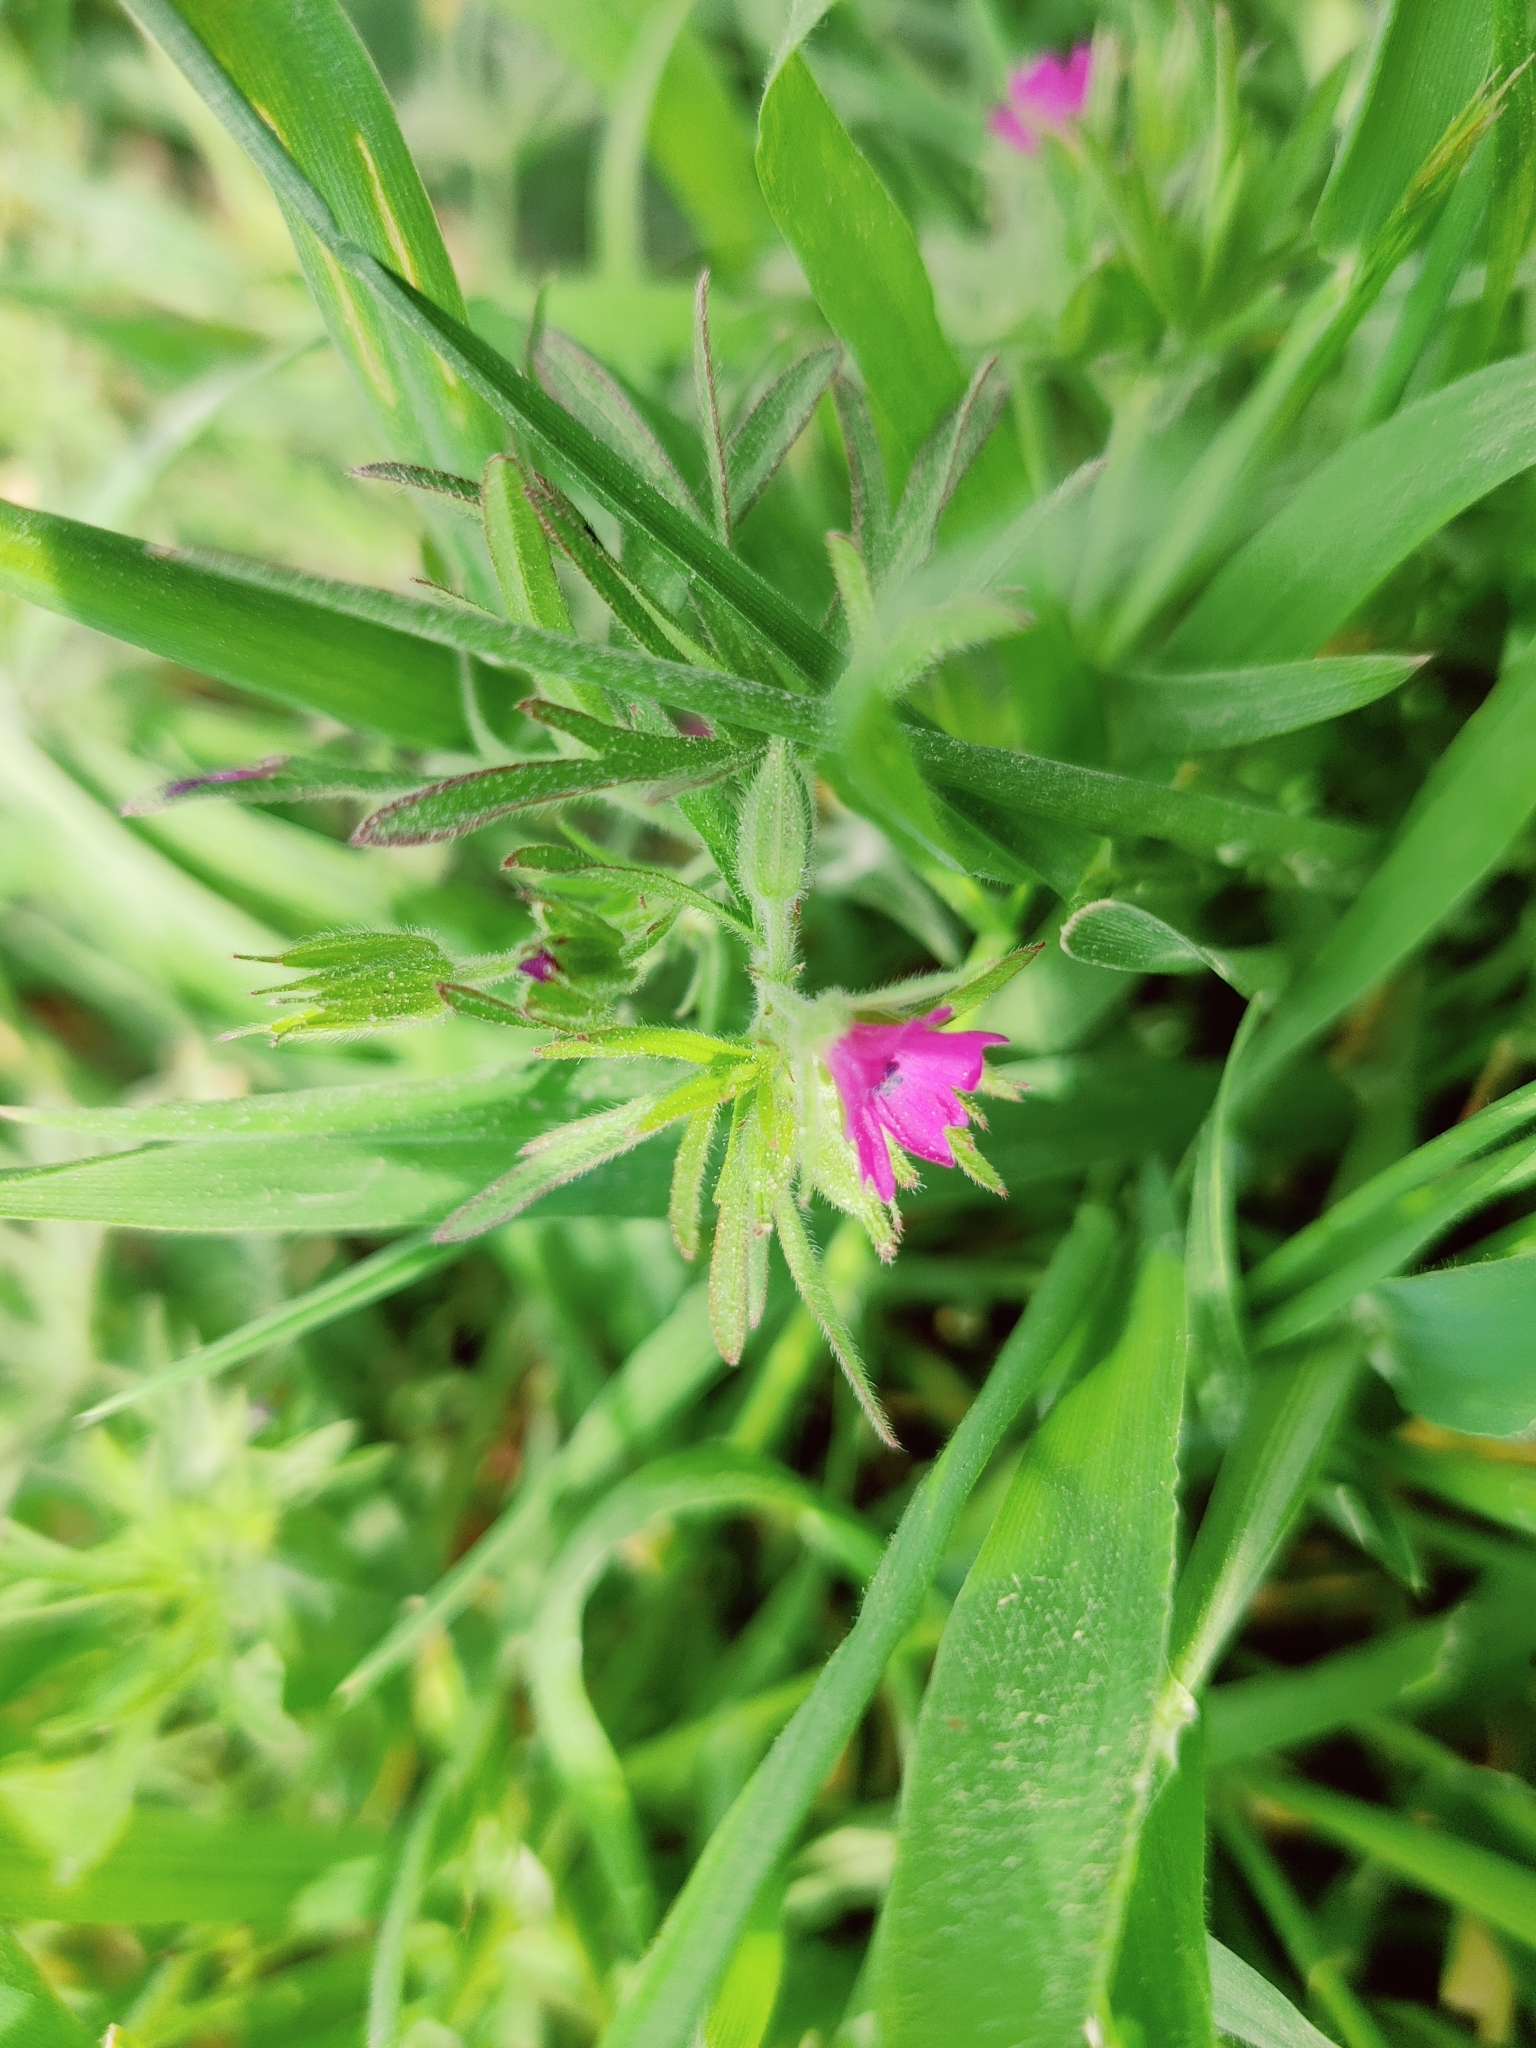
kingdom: Plantae
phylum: Tracheophyta
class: Magnoliopsida
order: Geraniales
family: Geraniaceae
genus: Geranium
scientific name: Geranium dissectum
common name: Cut-leaved crane's-bill
